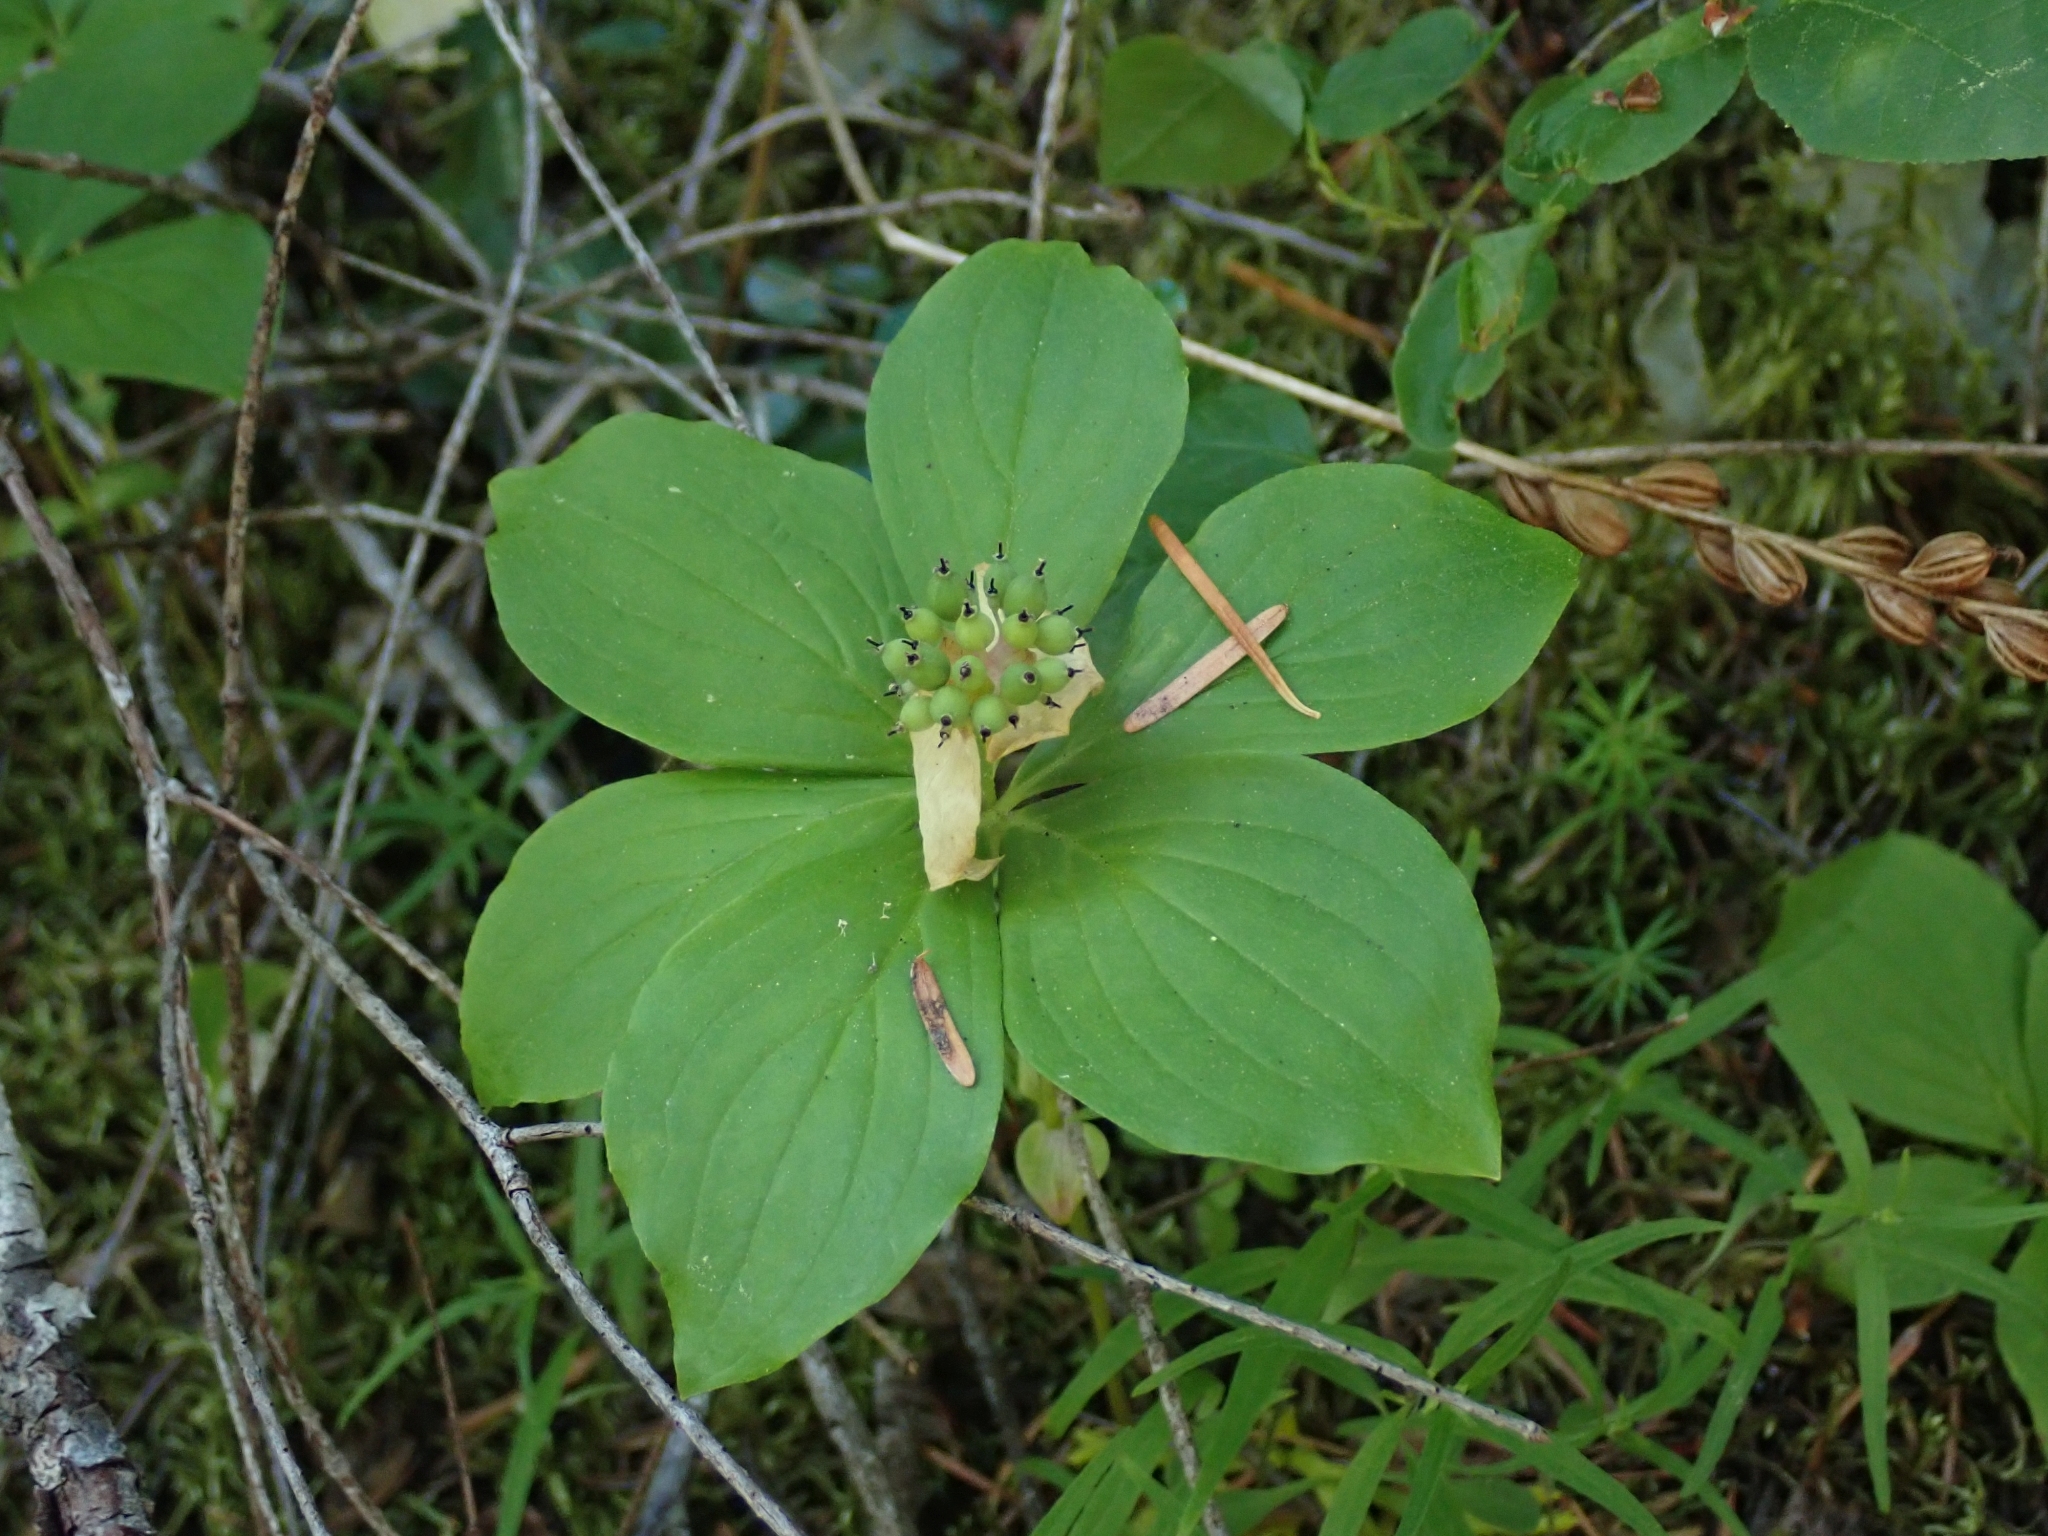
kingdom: Plantae
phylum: Tracheophyta
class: Magnoliopsida
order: Cornales
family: Cornaceae
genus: Cornus
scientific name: Cornus unalaschkensis
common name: Alaska bunchberry
